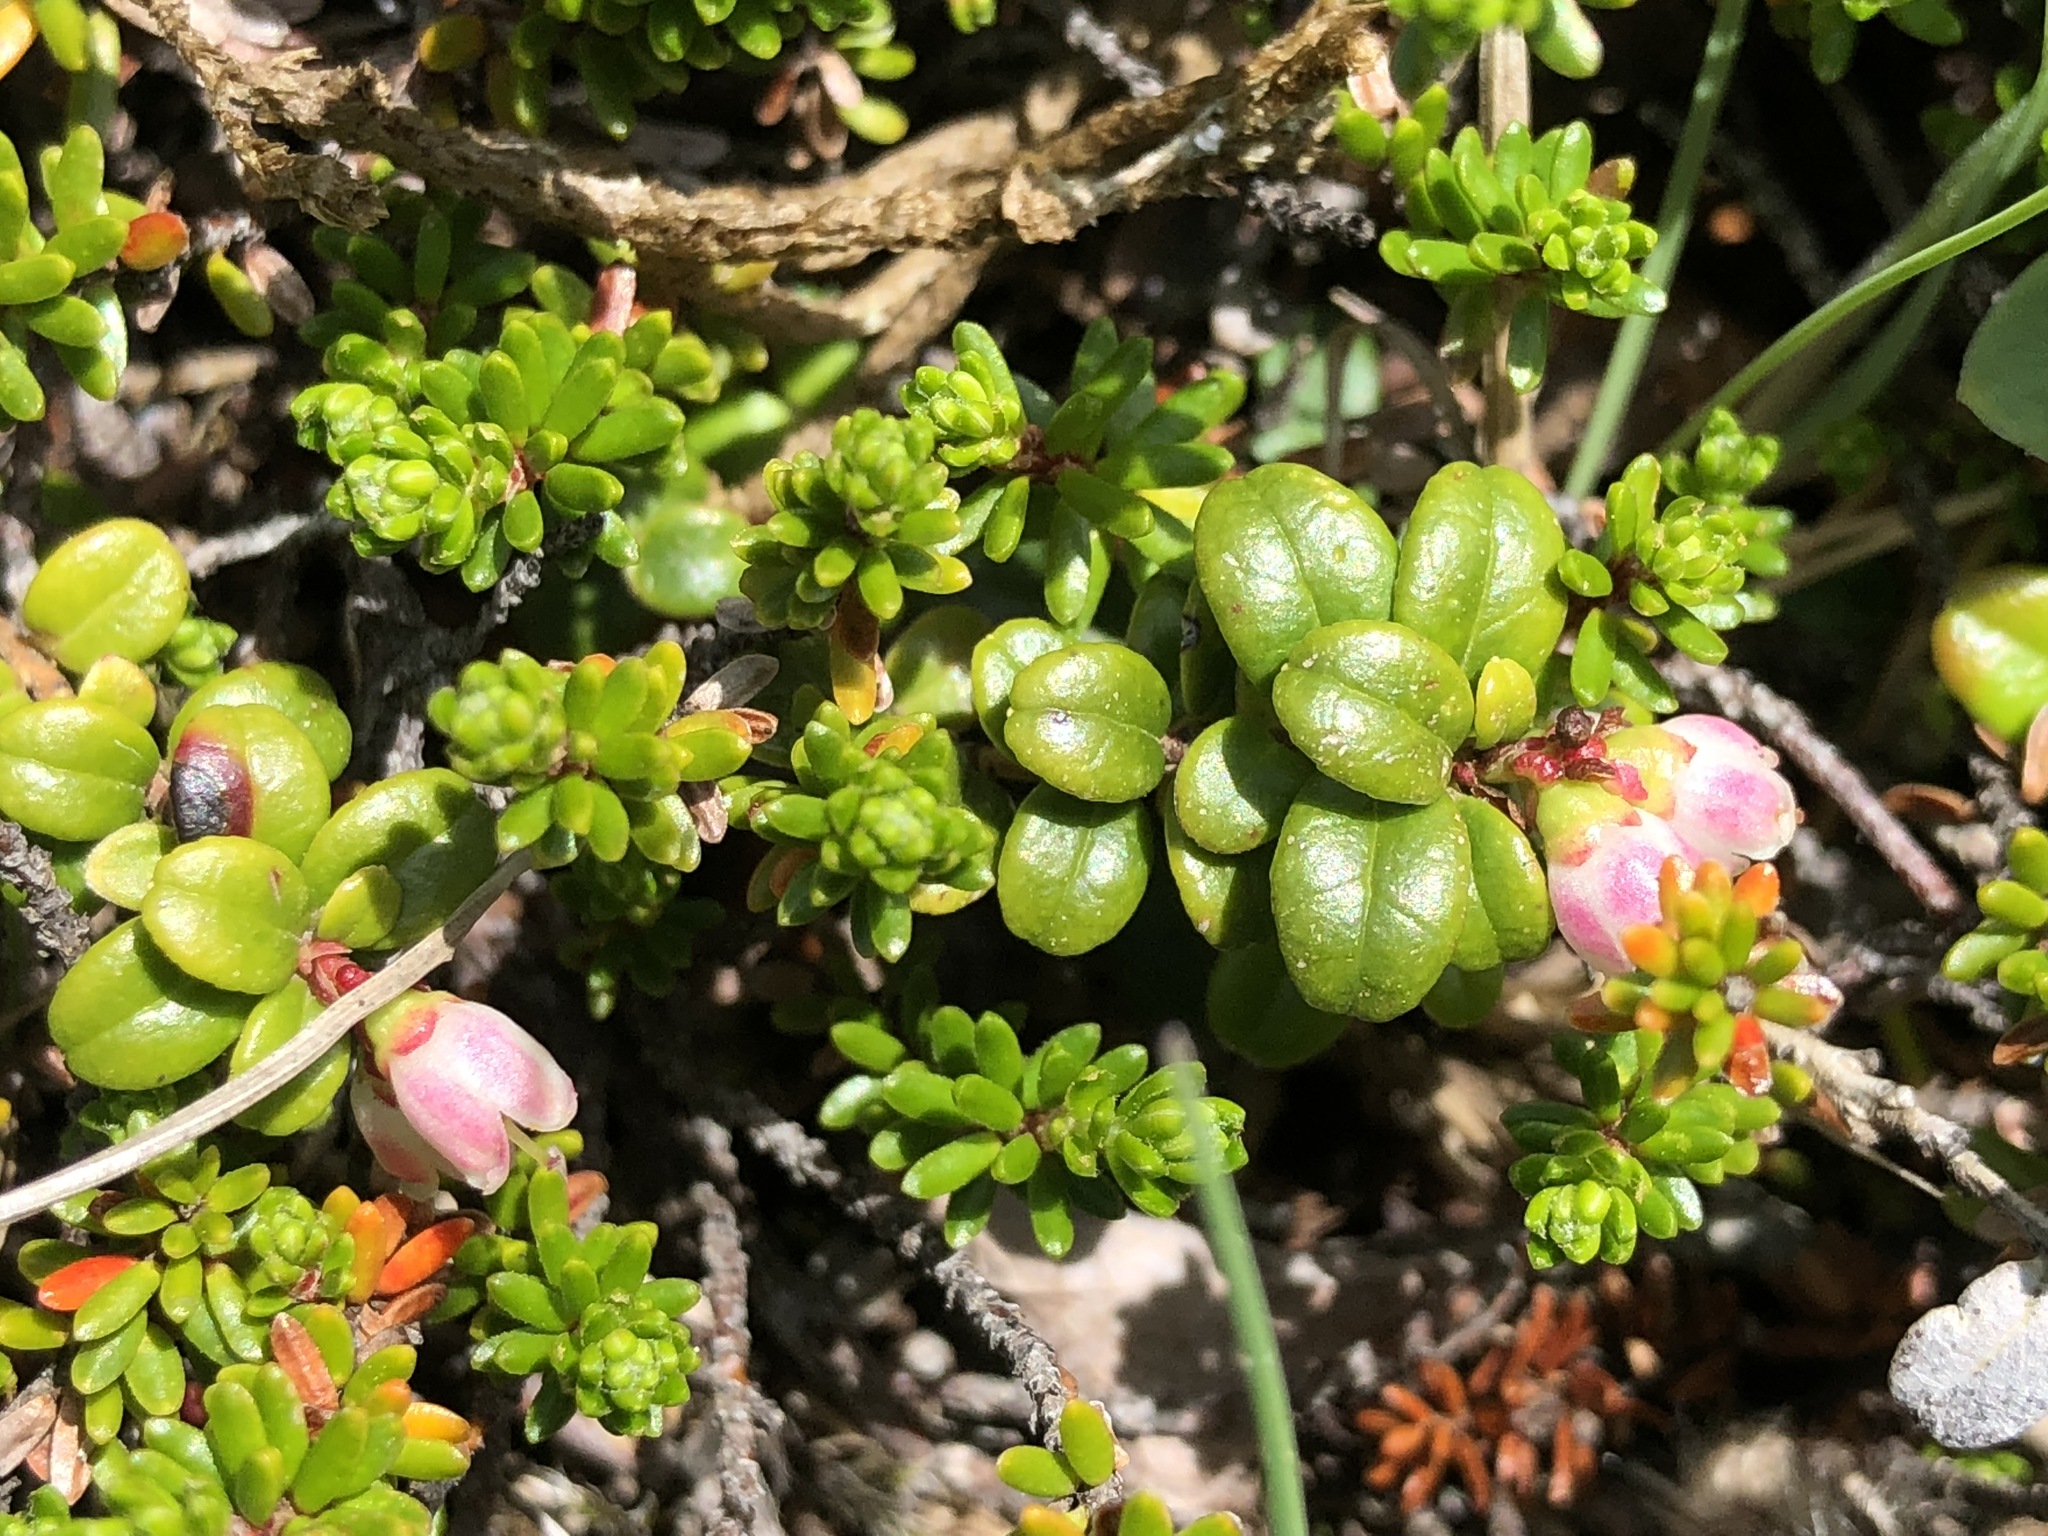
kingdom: Plantae
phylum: Tracheophyta
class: Magnoliopsida
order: Ericales
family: Ericaceae
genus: Vaccinium
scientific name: Vaccinium vitis-idaea
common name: Cowberry
